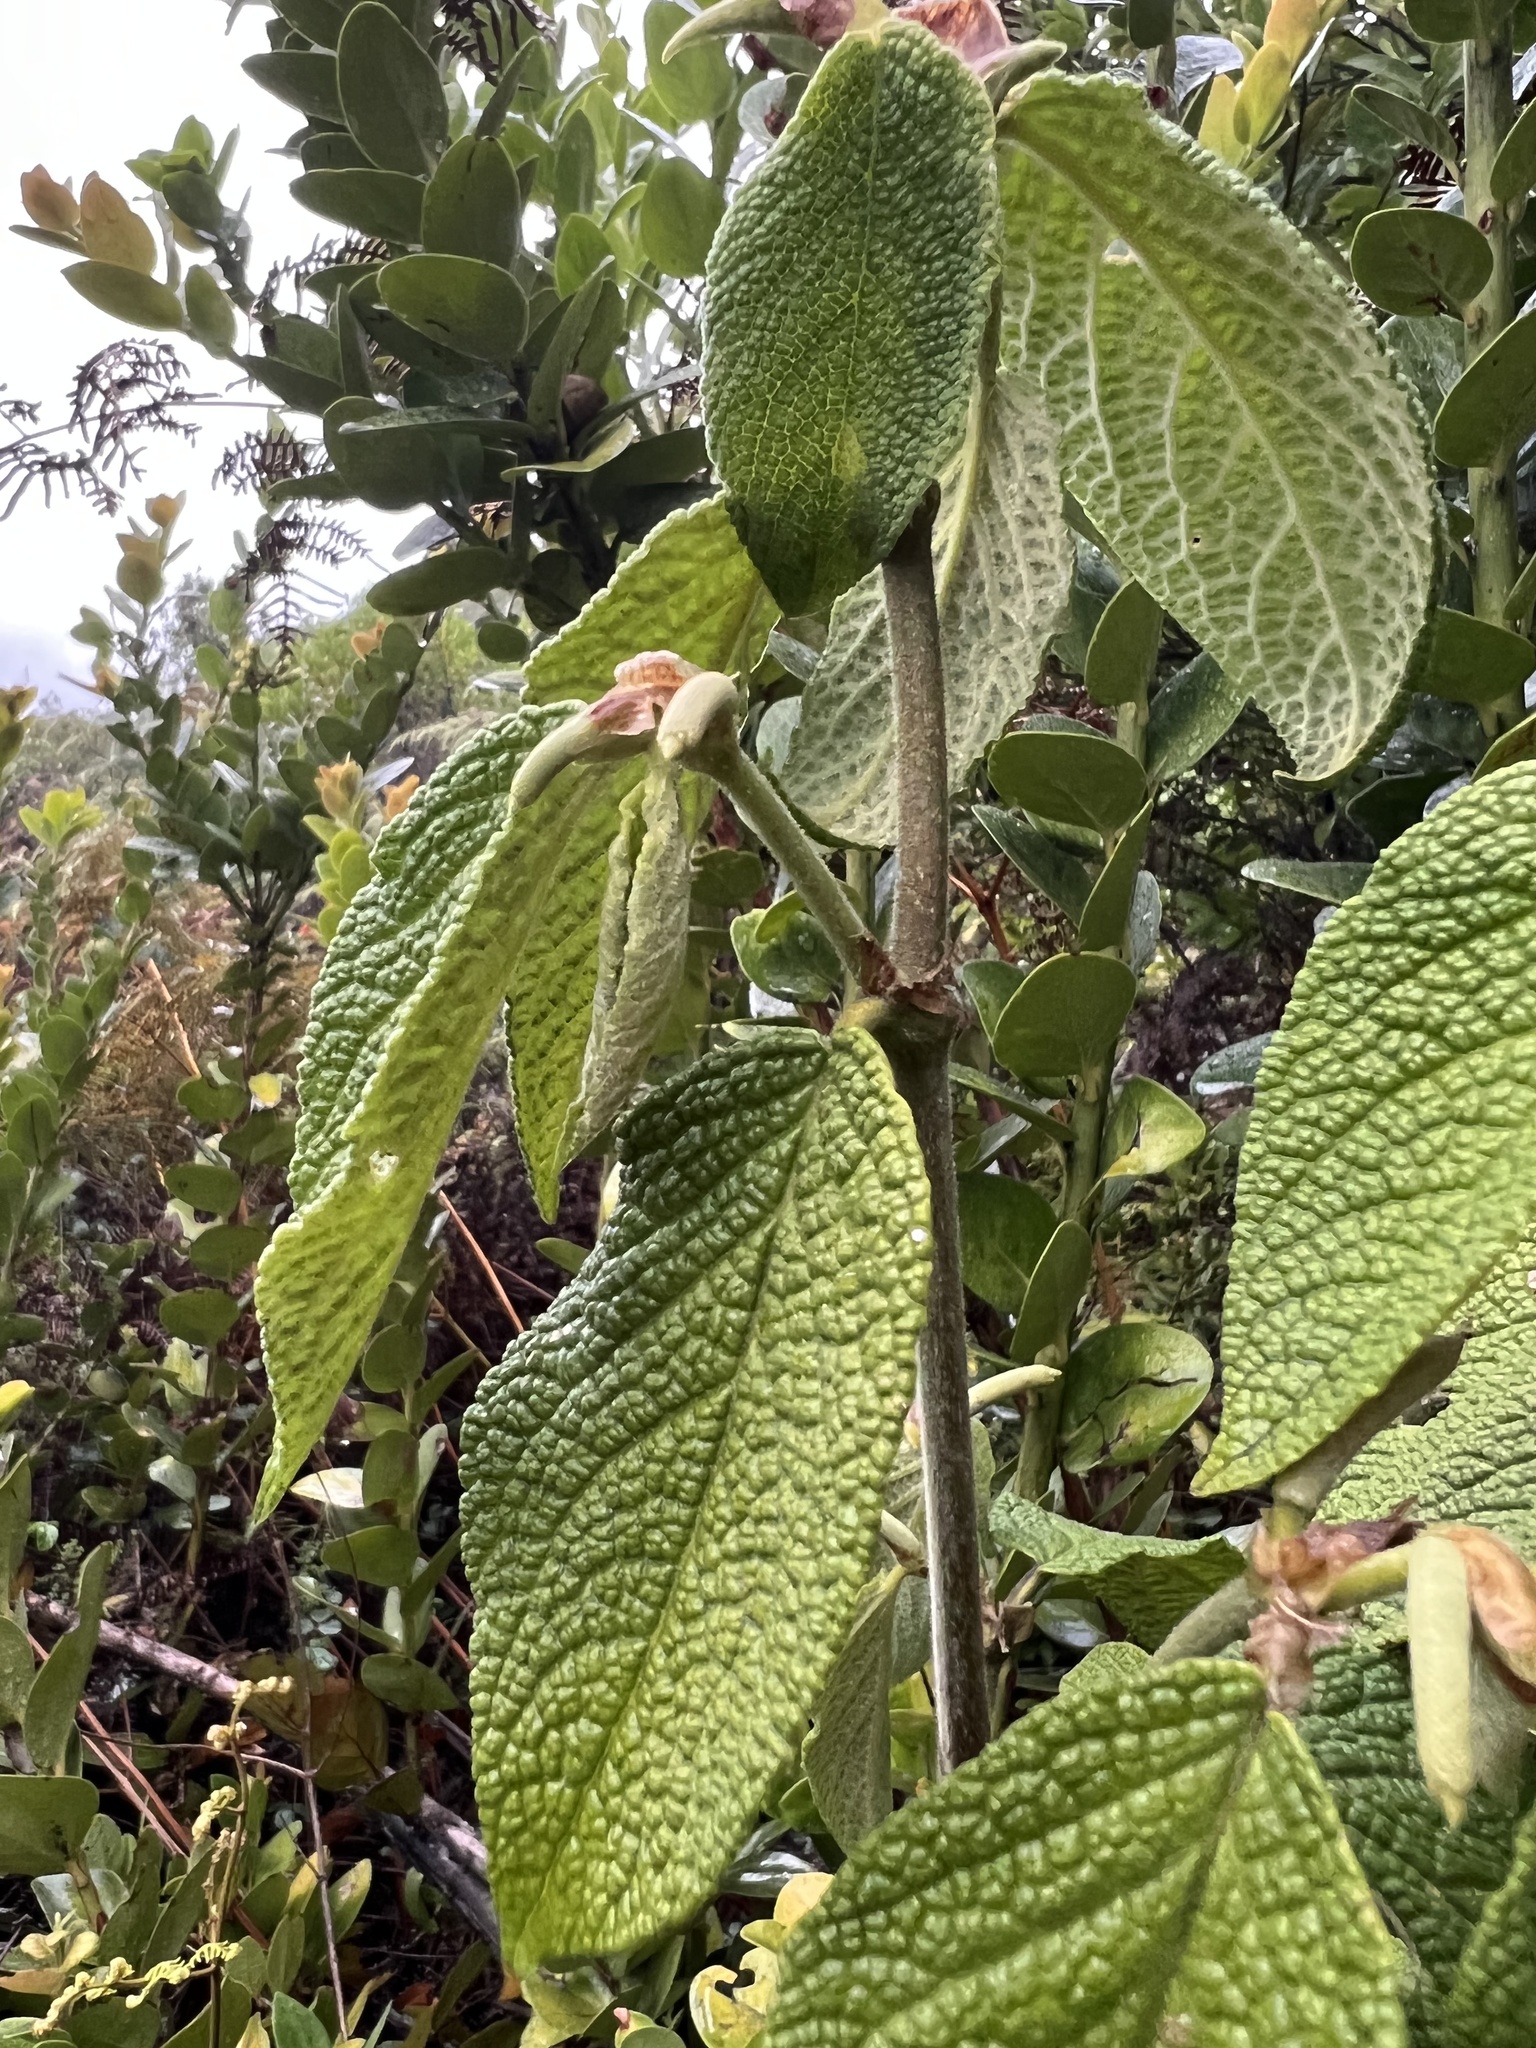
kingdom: Plantae
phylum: Tracheophyta
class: Magnoliopsida
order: Piperales
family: Piperaceae
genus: Piper
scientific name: Piper artanthe
